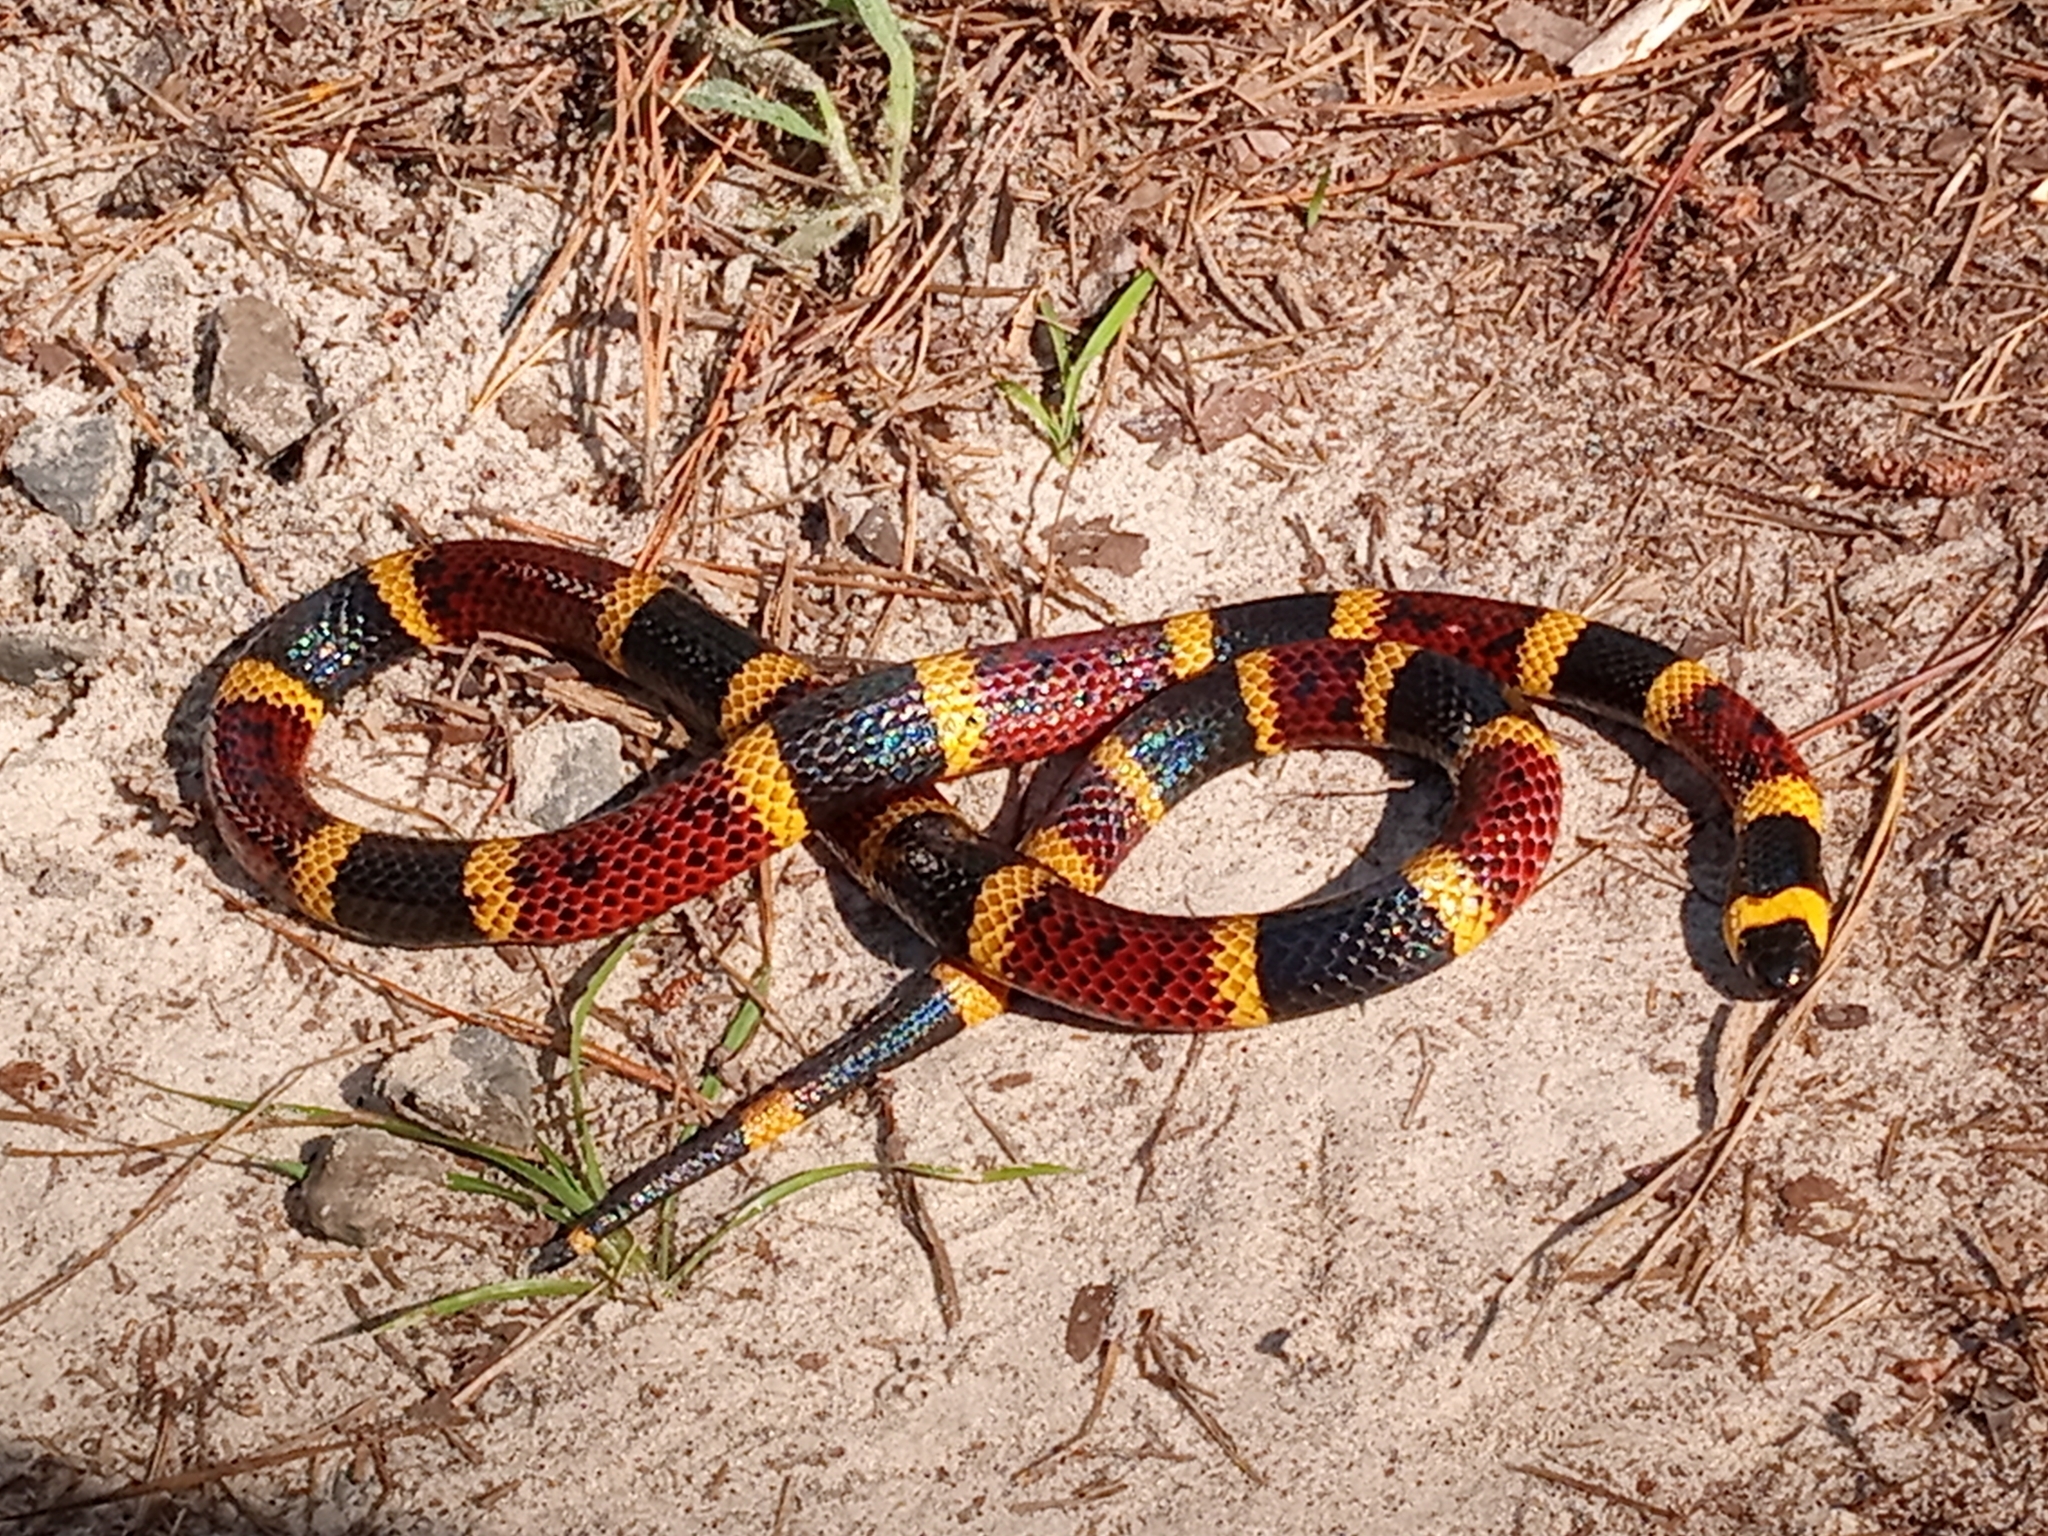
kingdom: Animalia
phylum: Chordata
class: Squamata
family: Elapidae
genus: Micrurus
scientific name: Micrurus tener
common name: Texas coral snake
